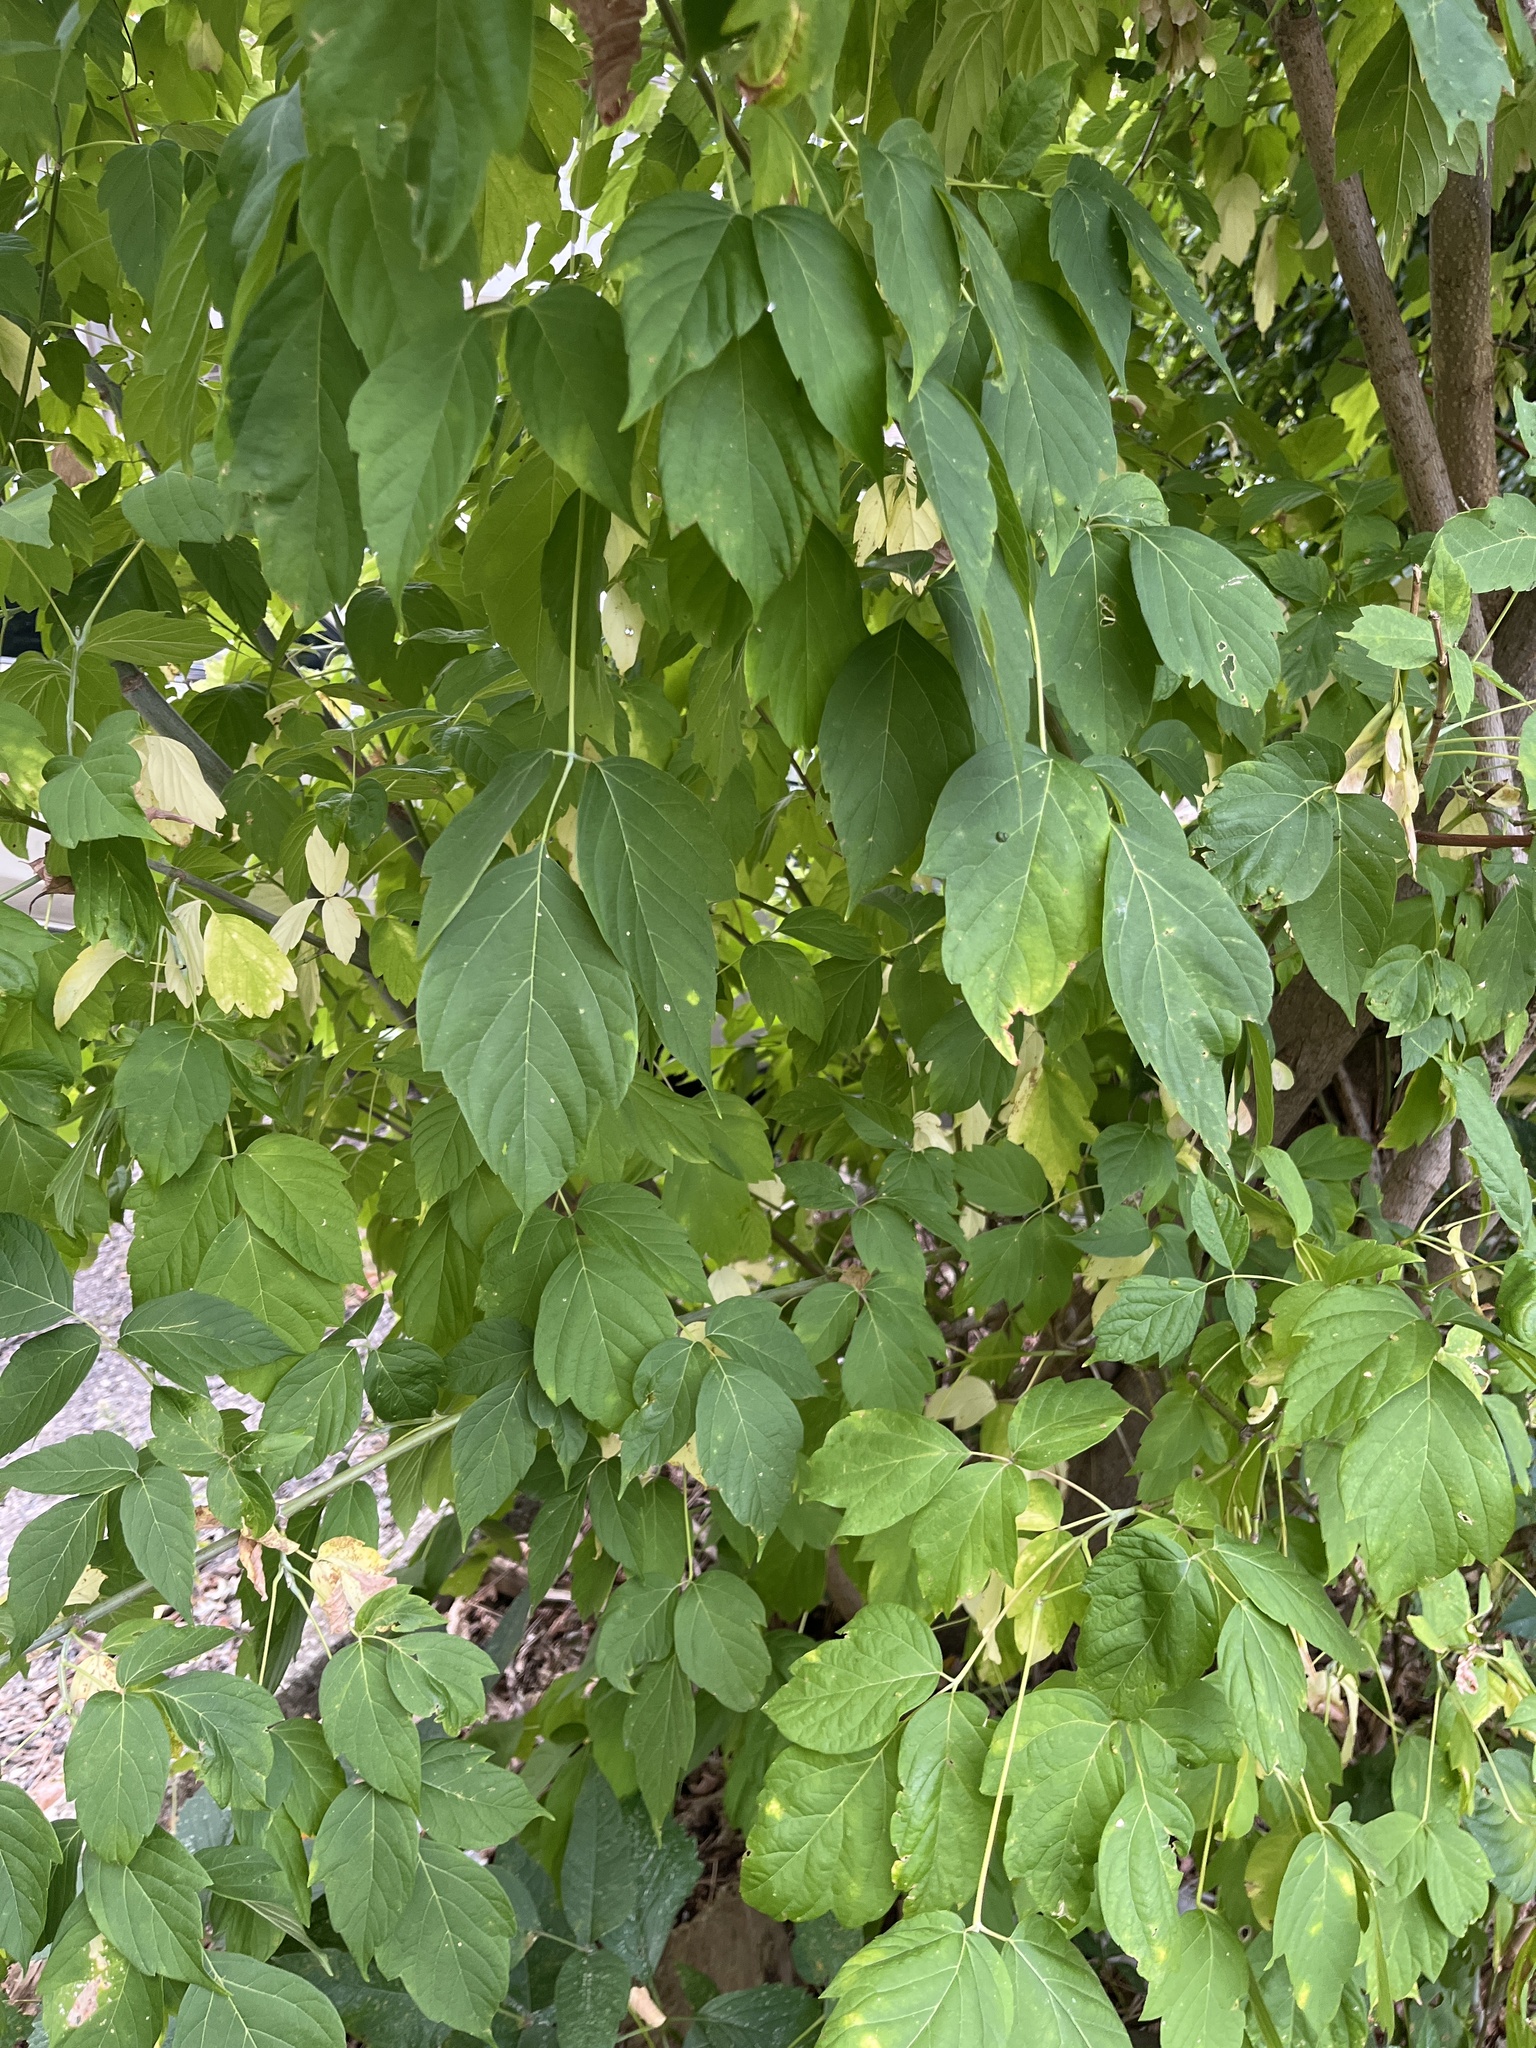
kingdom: Plantae
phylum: Tracheophyta
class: Magnoliopsida
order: Sapindales
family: Sapindaceae
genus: Acer
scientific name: Acer negundo
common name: Ashleaf maple
